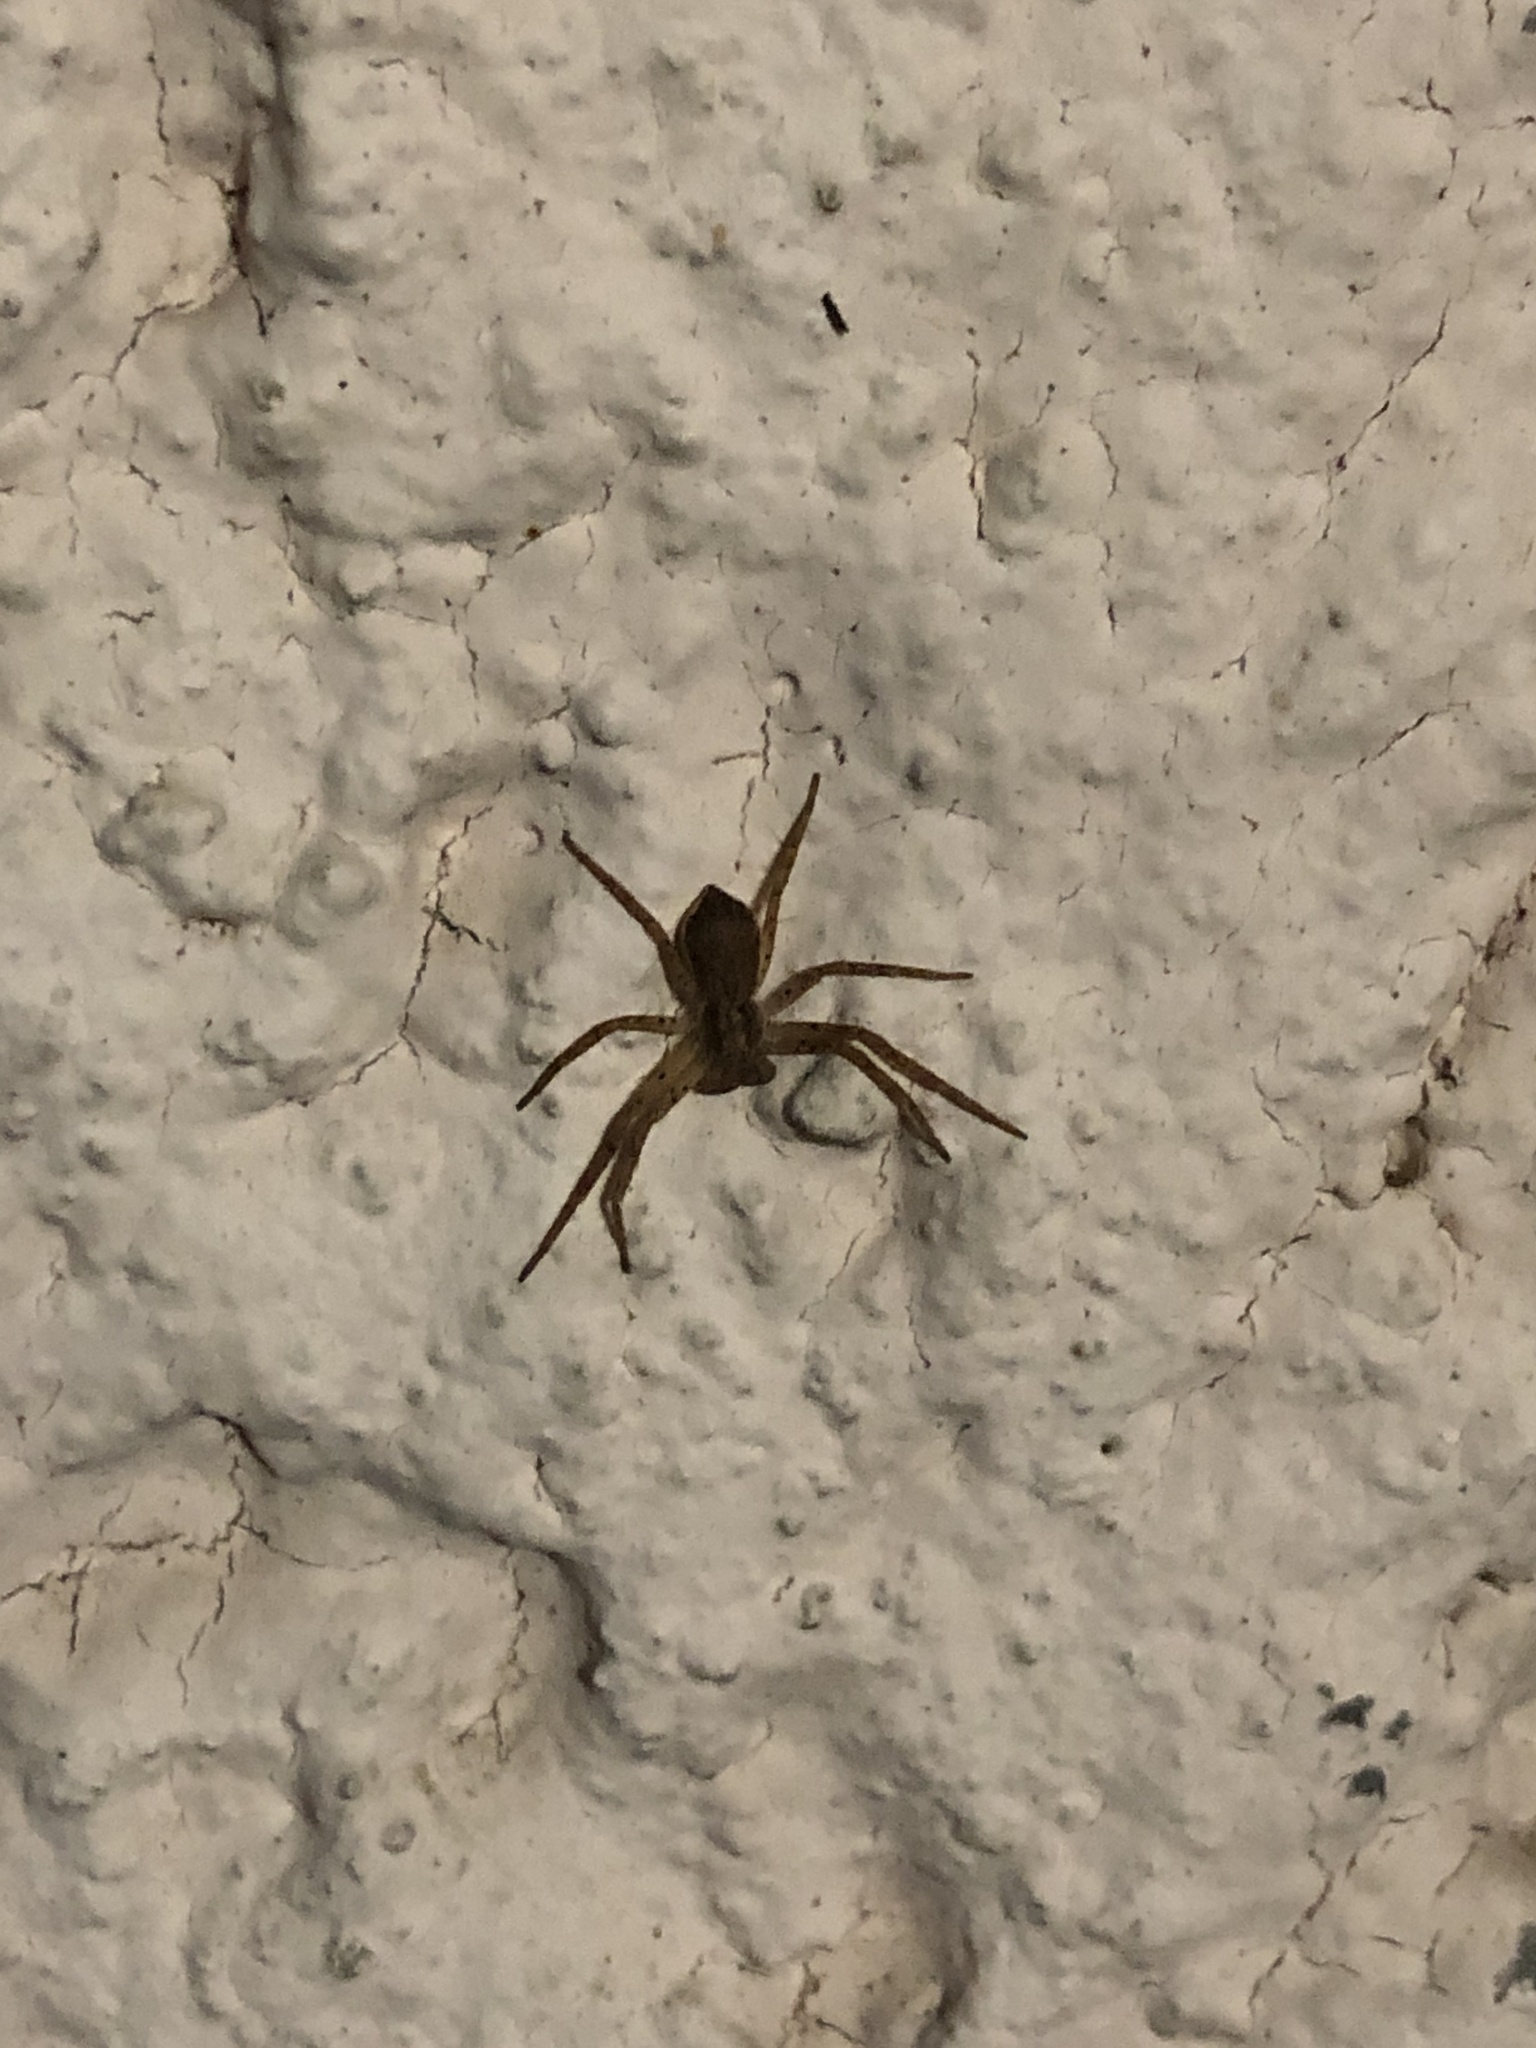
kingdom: Animalia
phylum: Arthropoda
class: Arachnida
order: Araneae
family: Philodromidae
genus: Philodromus
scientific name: Philodromus dispar
